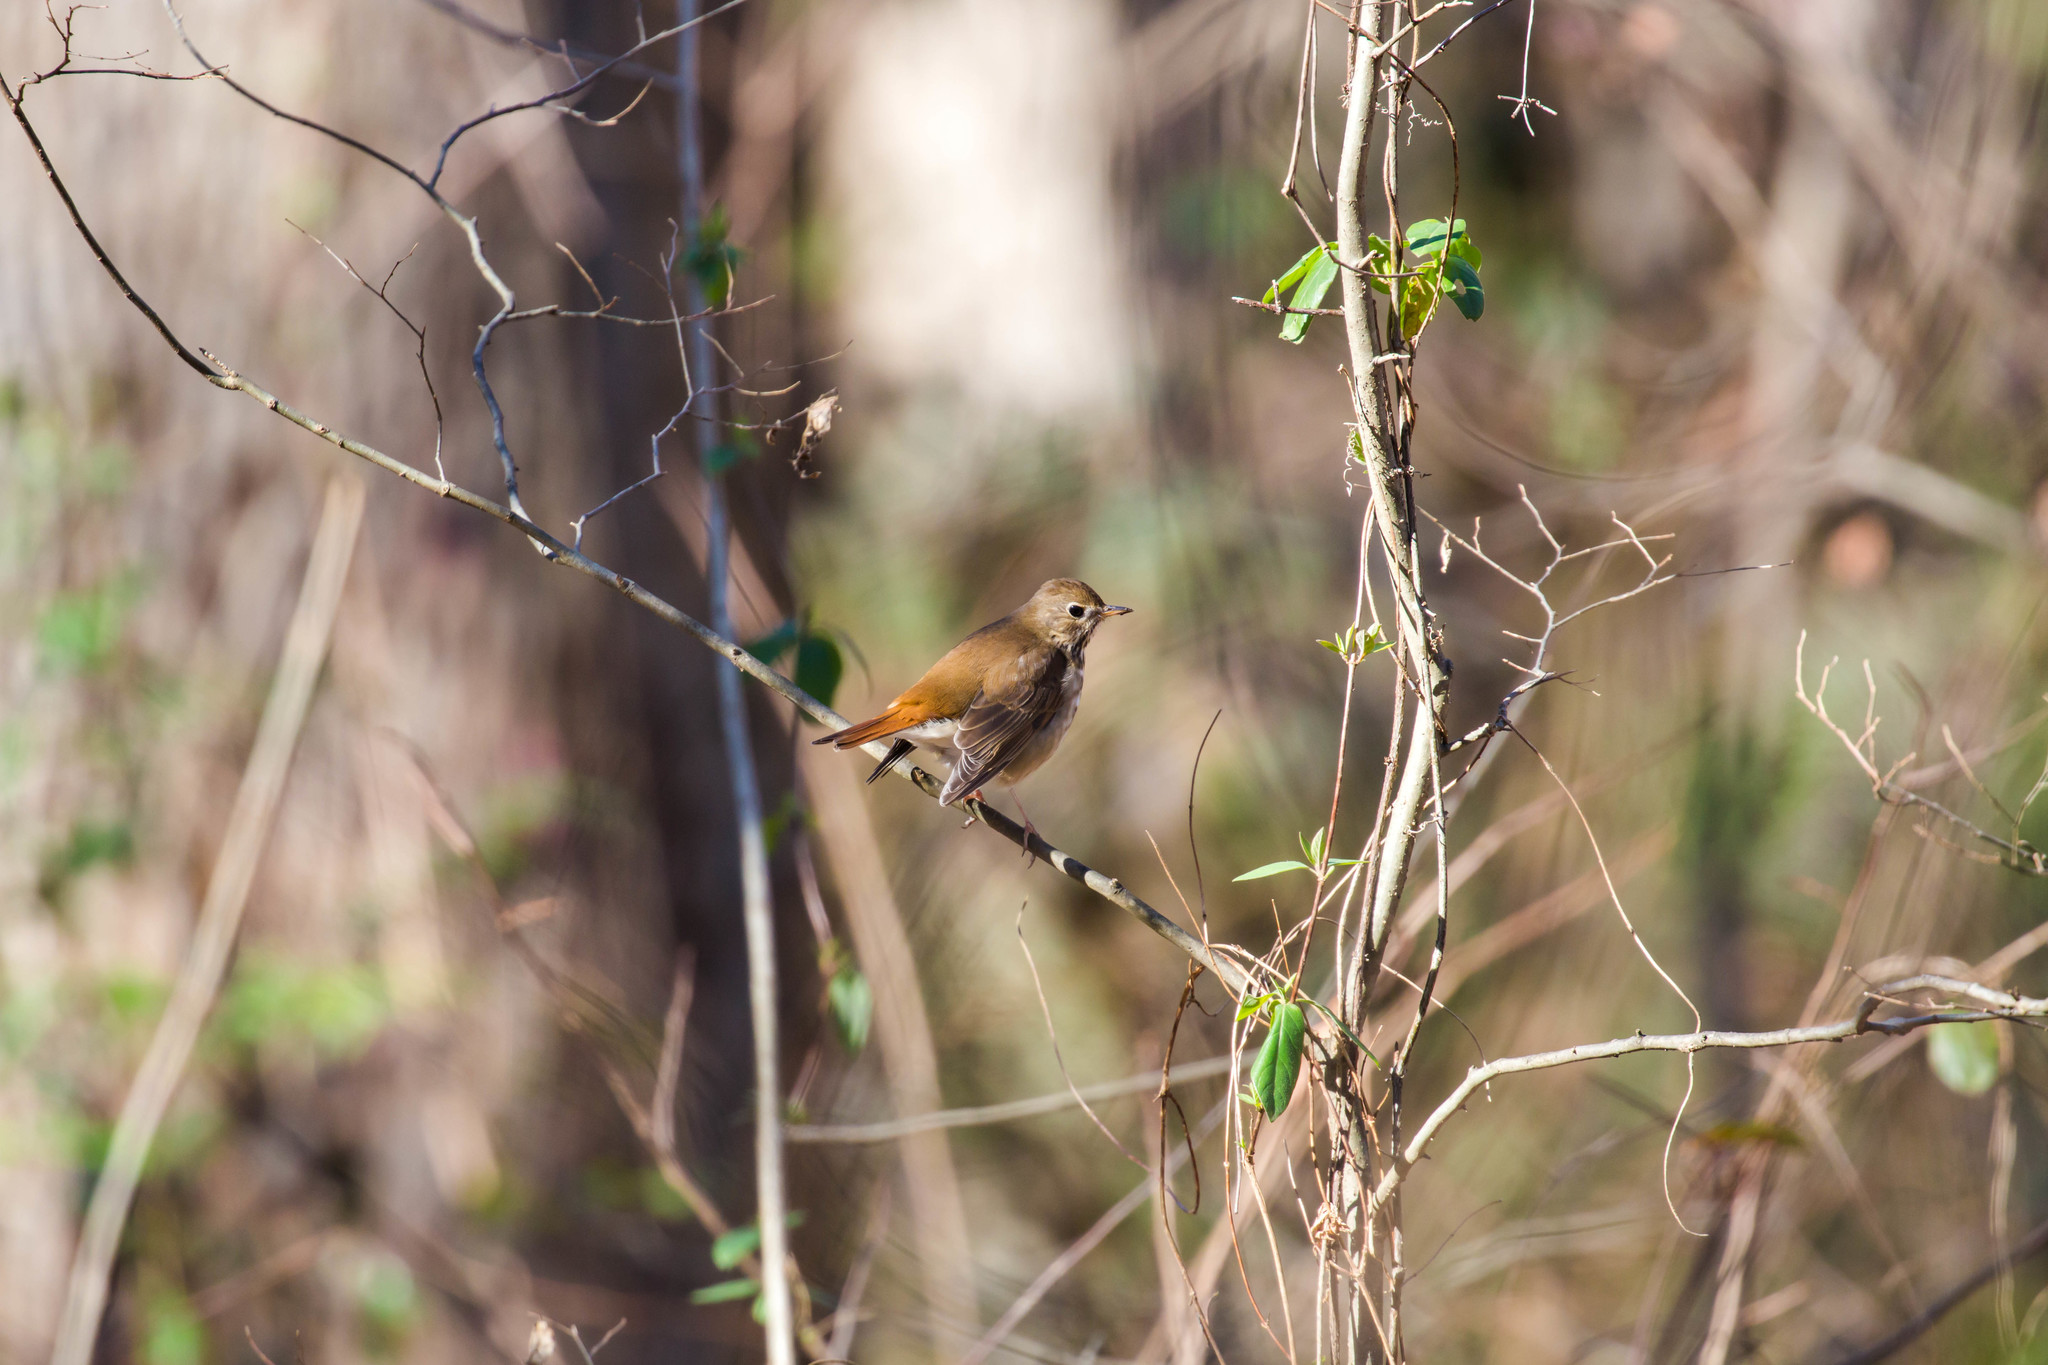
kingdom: Animalia
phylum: Chordata
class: Aves
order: Passeriformes
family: Turdidae
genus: Catharus
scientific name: Catharus guttatus
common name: Hermit thrush
